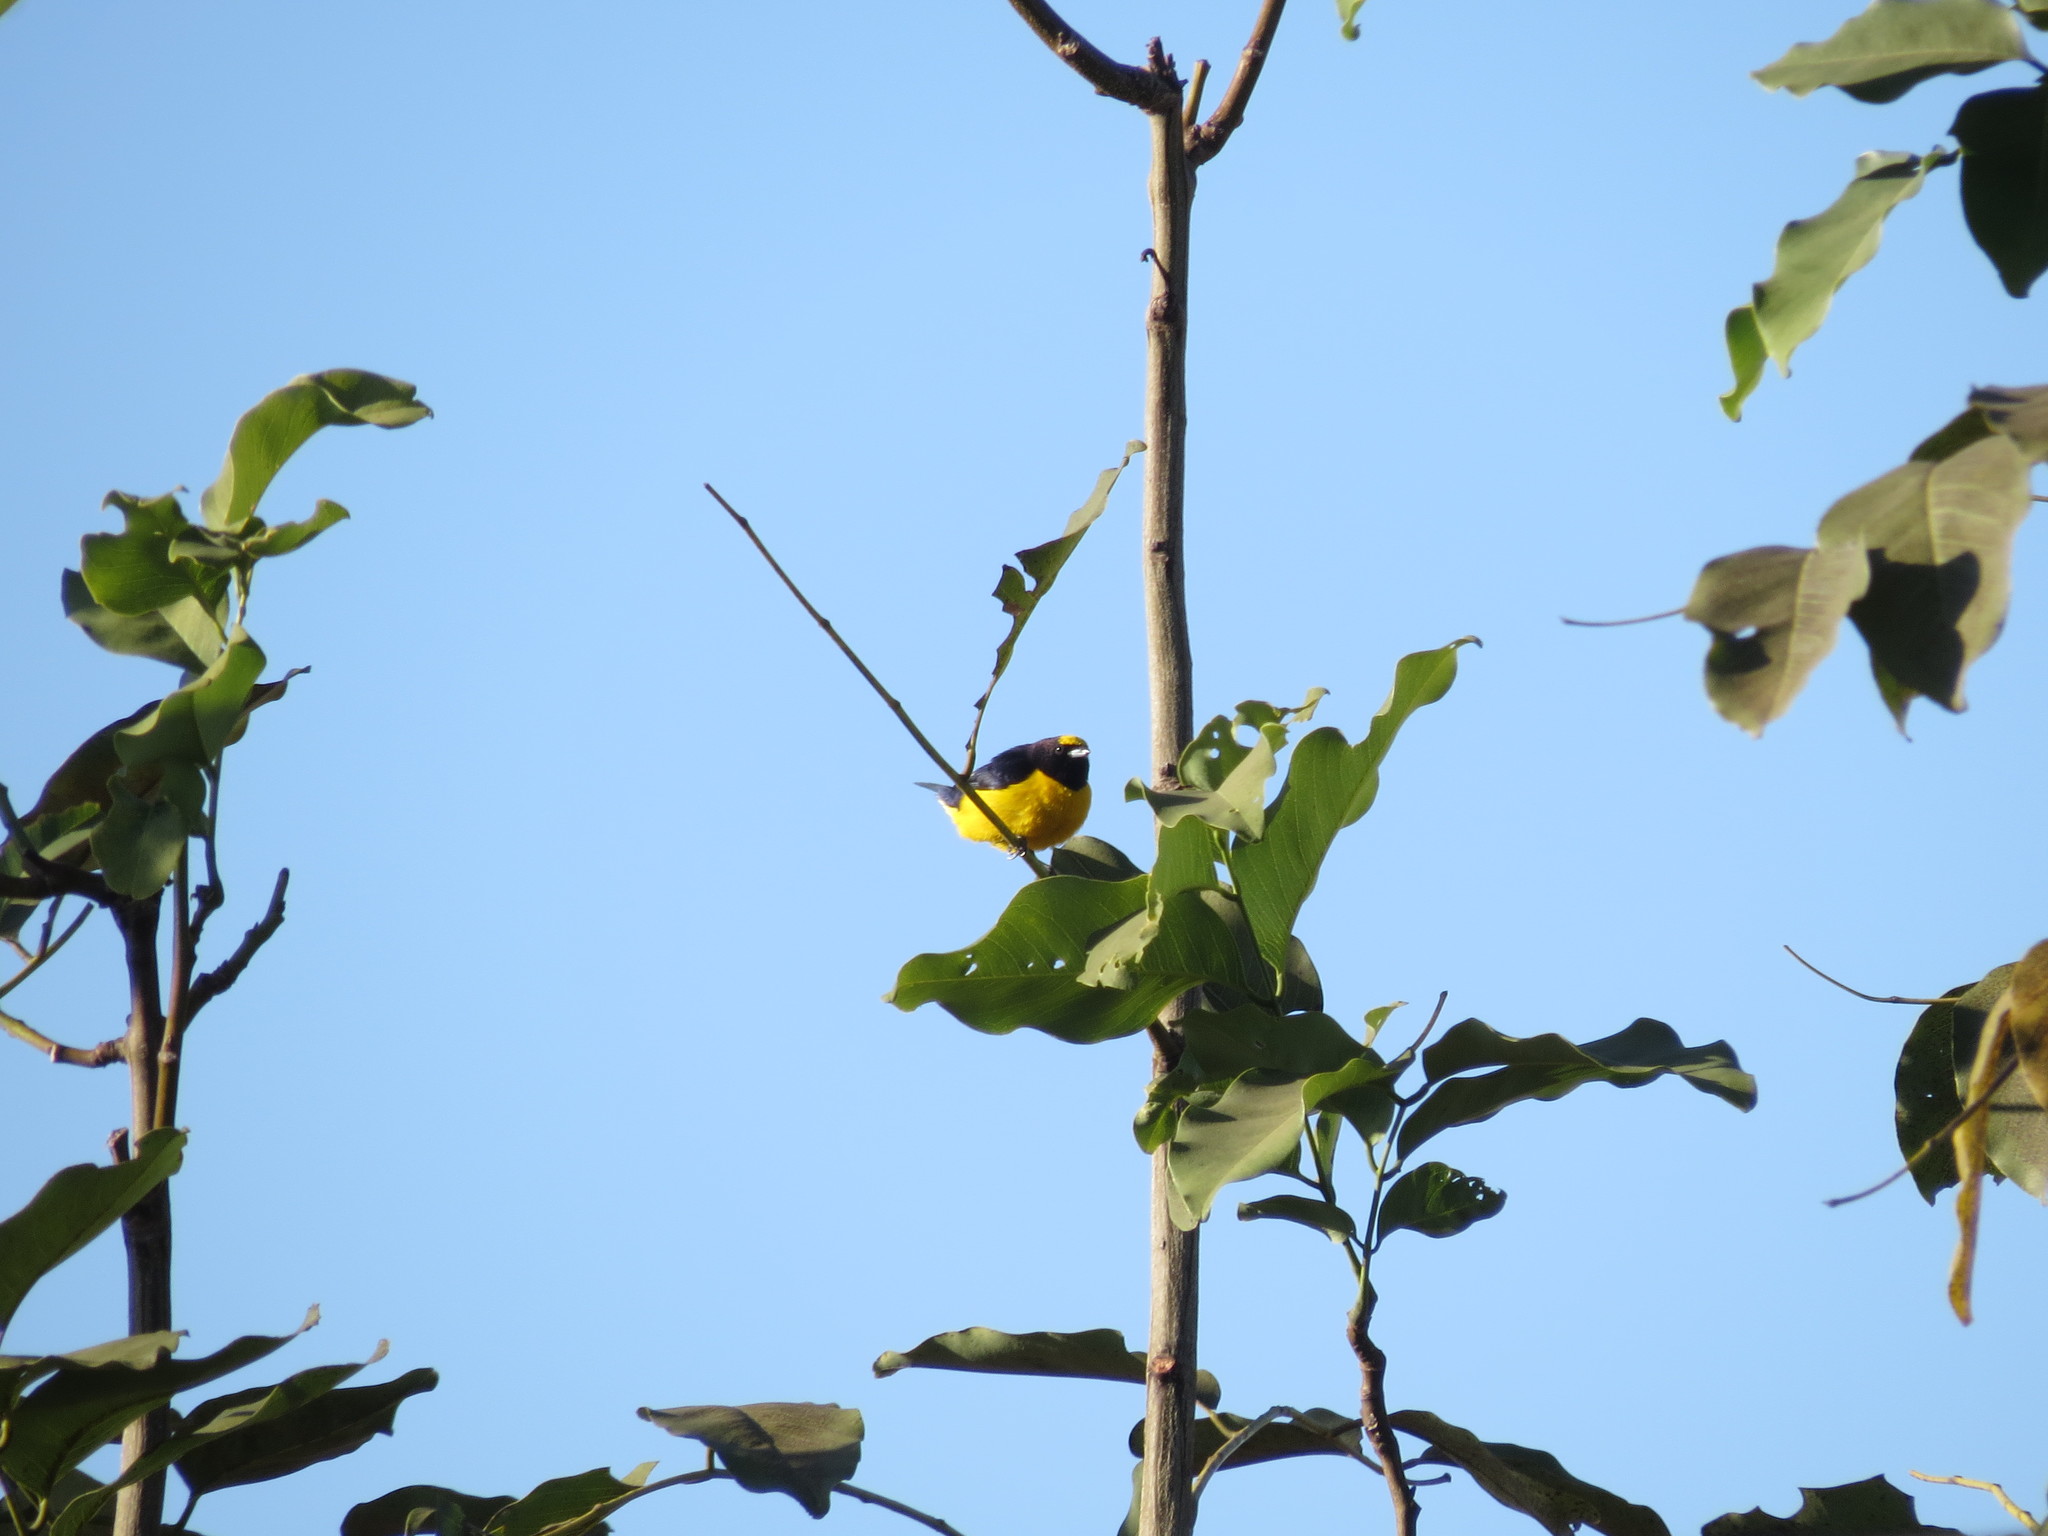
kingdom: Animalia
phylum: Chordata
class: Aves
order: Passeriformes
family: Fringillidae
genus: Euphonia
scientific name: Euphonia chlorotica
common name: Purple-throated euphonia
